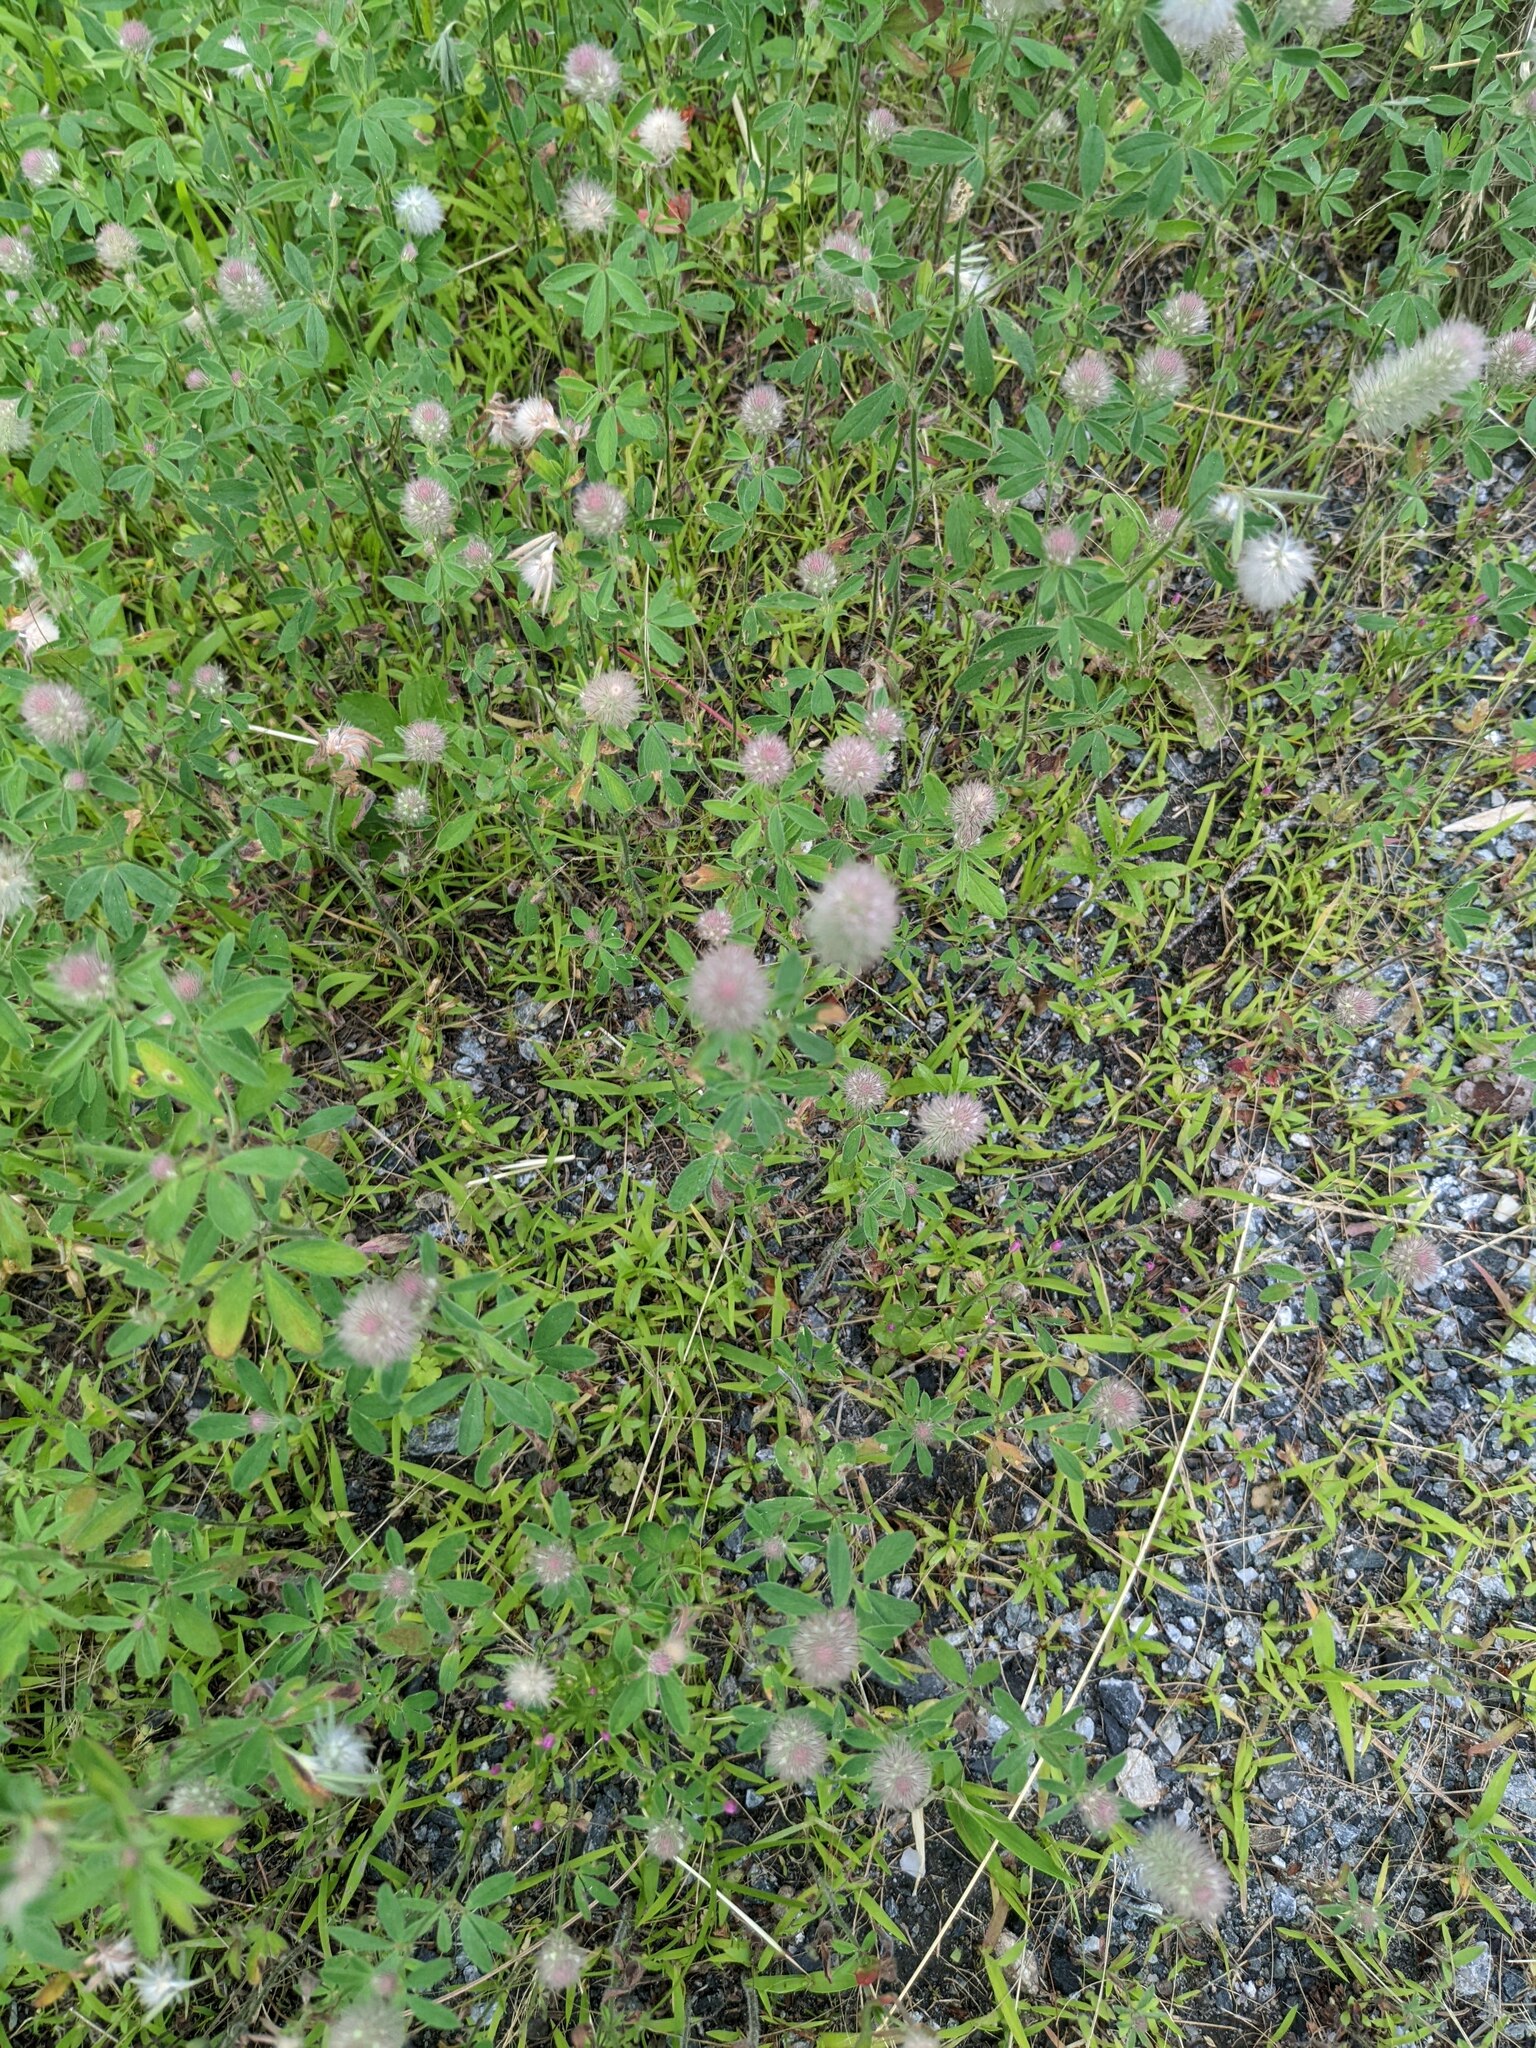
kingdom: Plantae
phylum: Tracheophyta
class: Magnoliopsida
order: Fabales
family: Fabaceae
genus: Trifolium
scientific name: Trifolium arvense
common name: Hare's-foot clover
